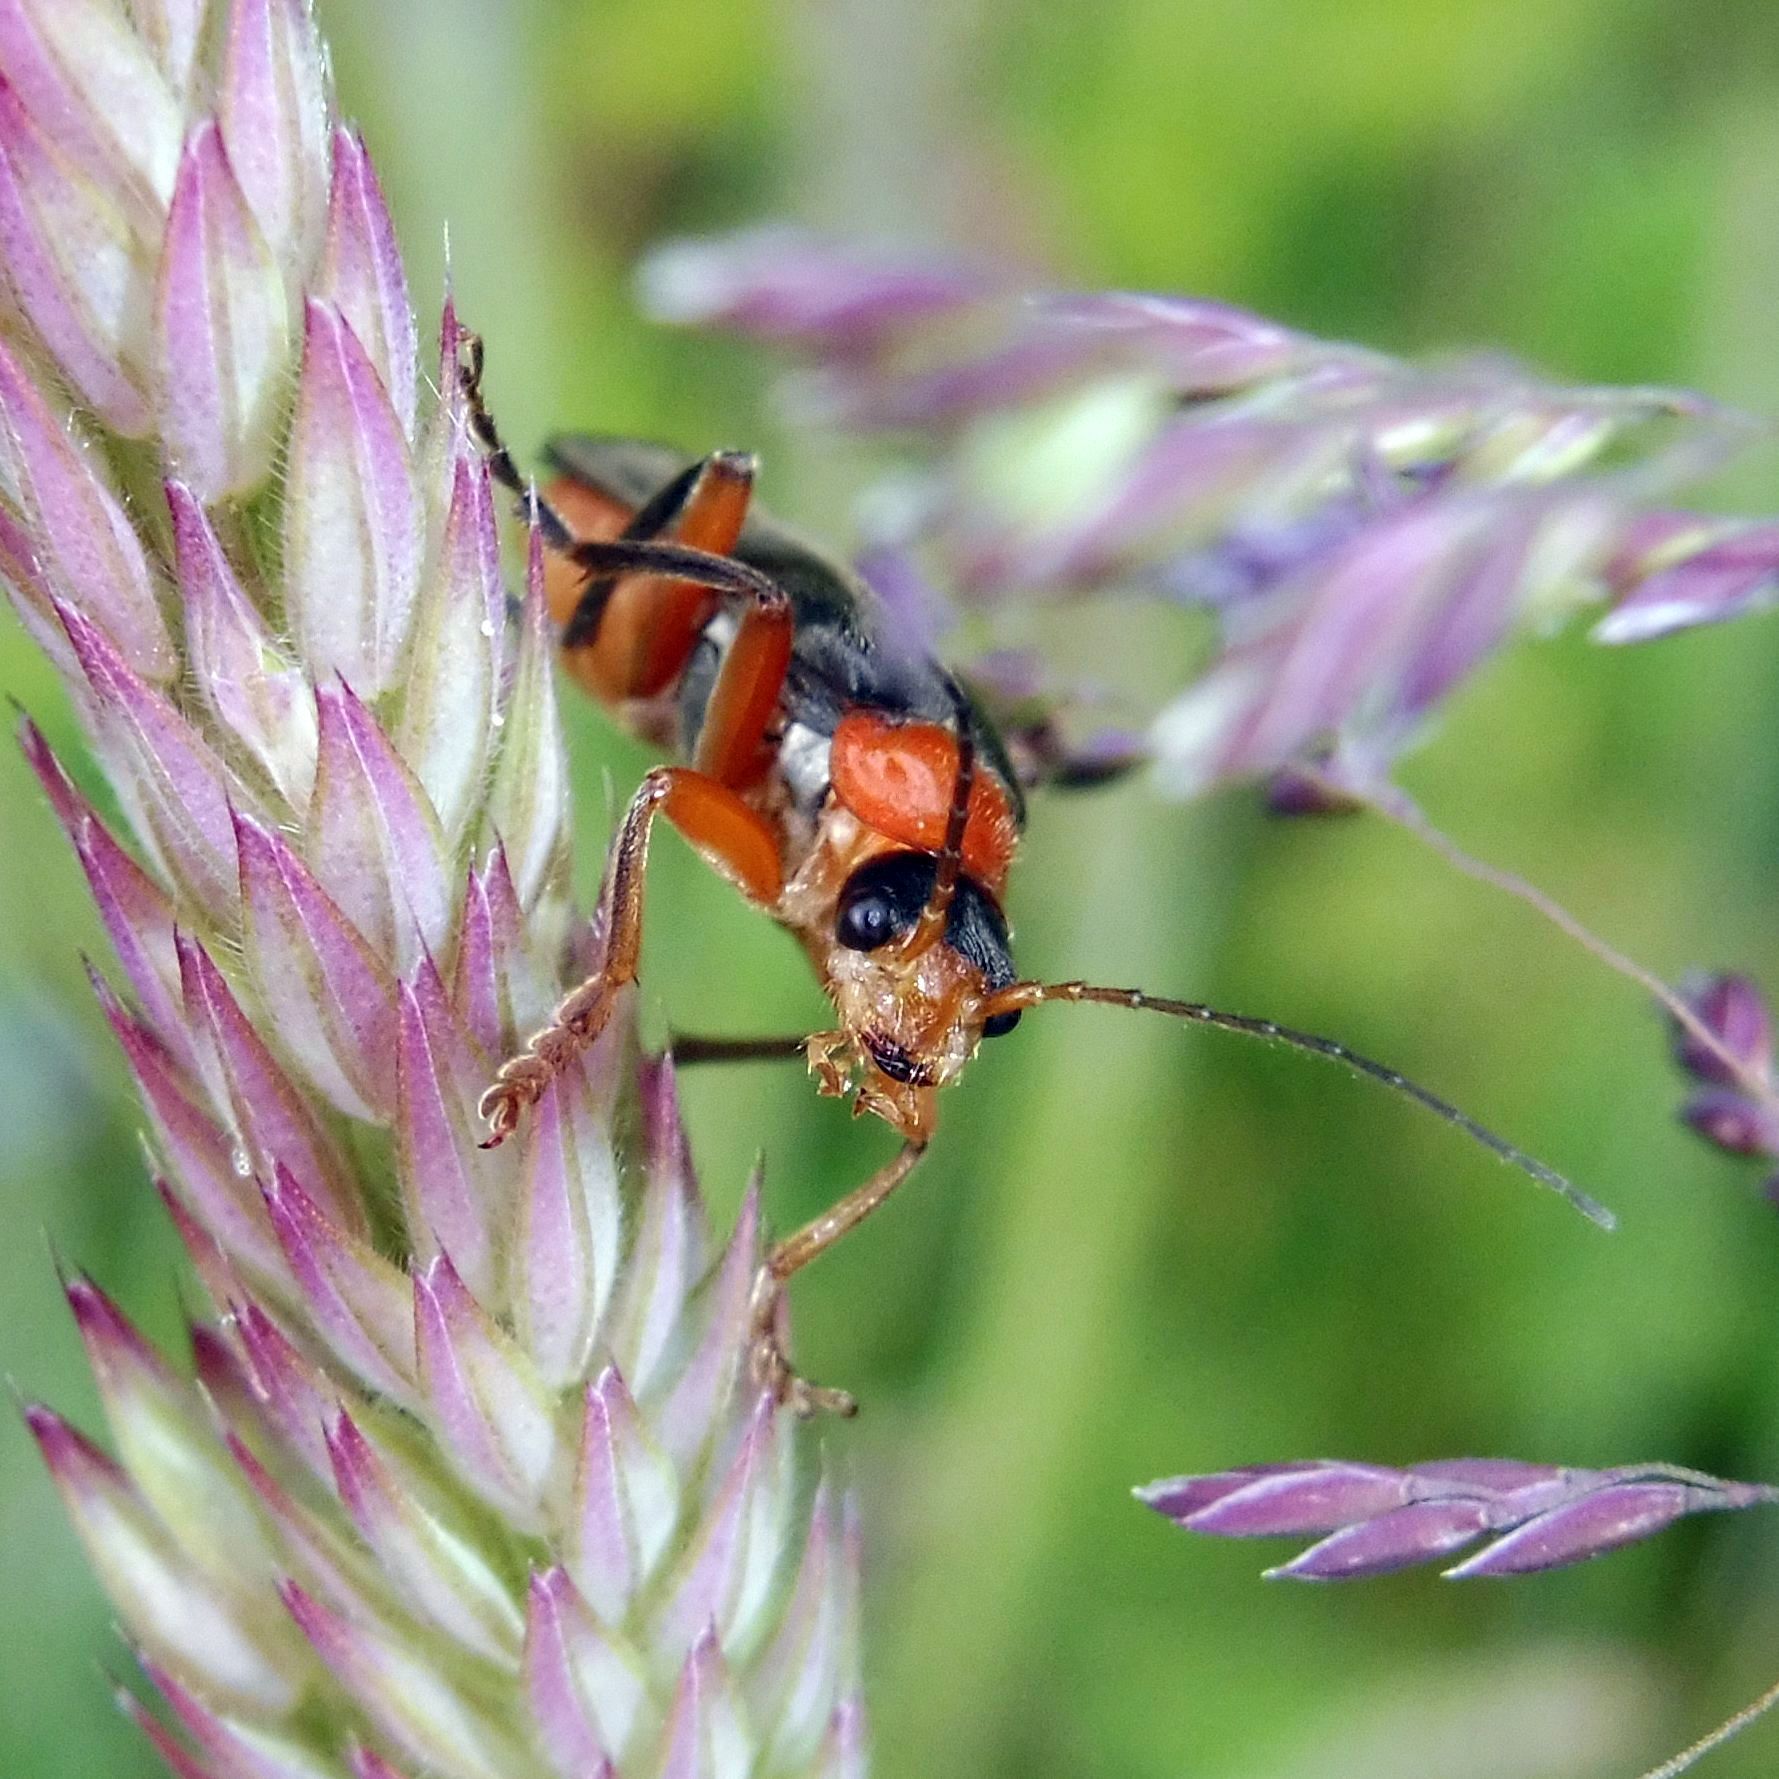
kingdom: Animalia
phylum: Arthropoda
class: Insecta
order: Coleoptera
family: Cantharidae
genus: Cantharis
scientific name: Cantharis pellucida
